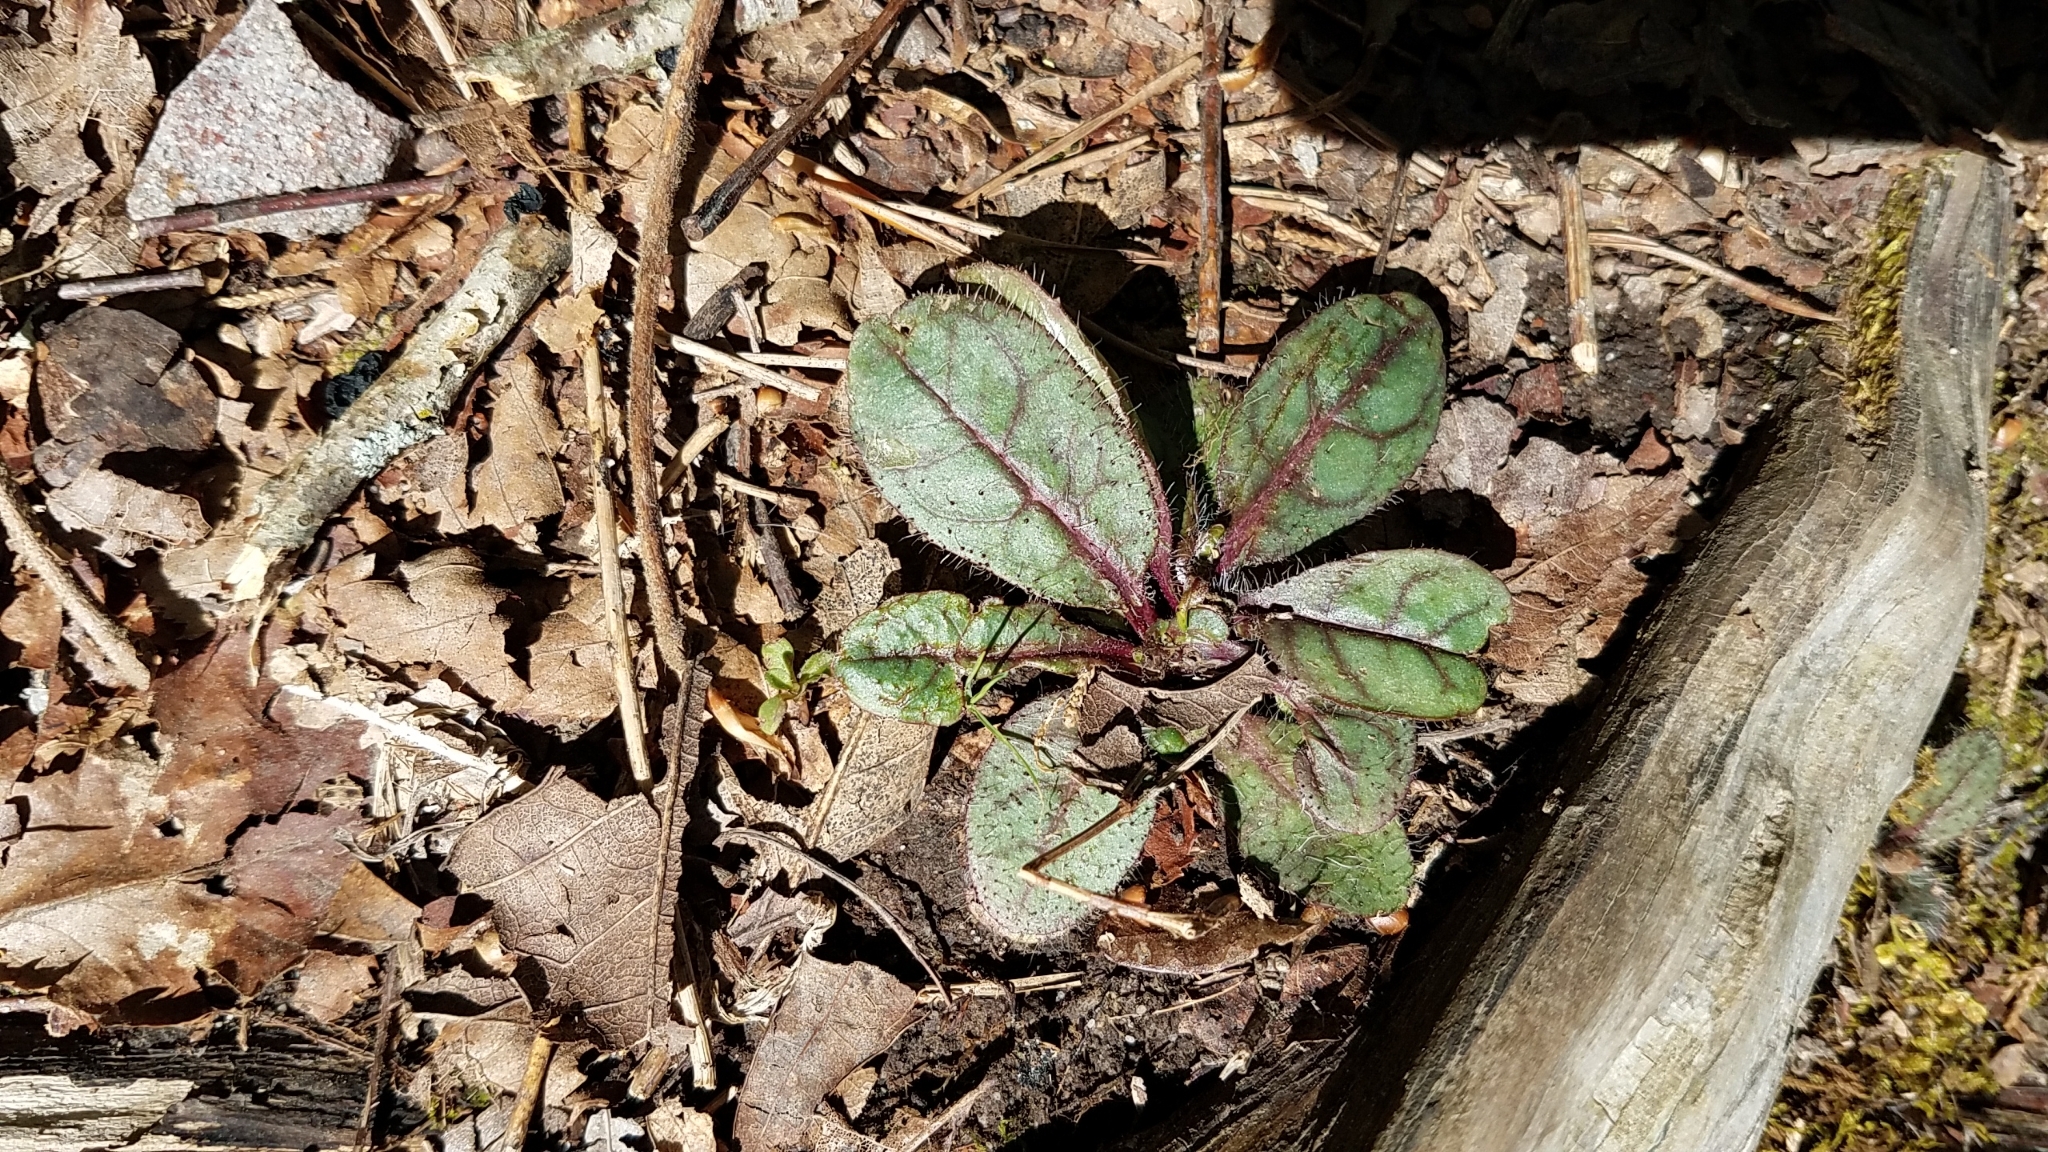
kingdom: Plantae
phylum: Tracheophyta
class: Magnoliopsida
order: Asterales
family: Asteraceae
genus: Hieracium
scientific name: Hieracium venosum
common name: Rattlesnake hawkweed
